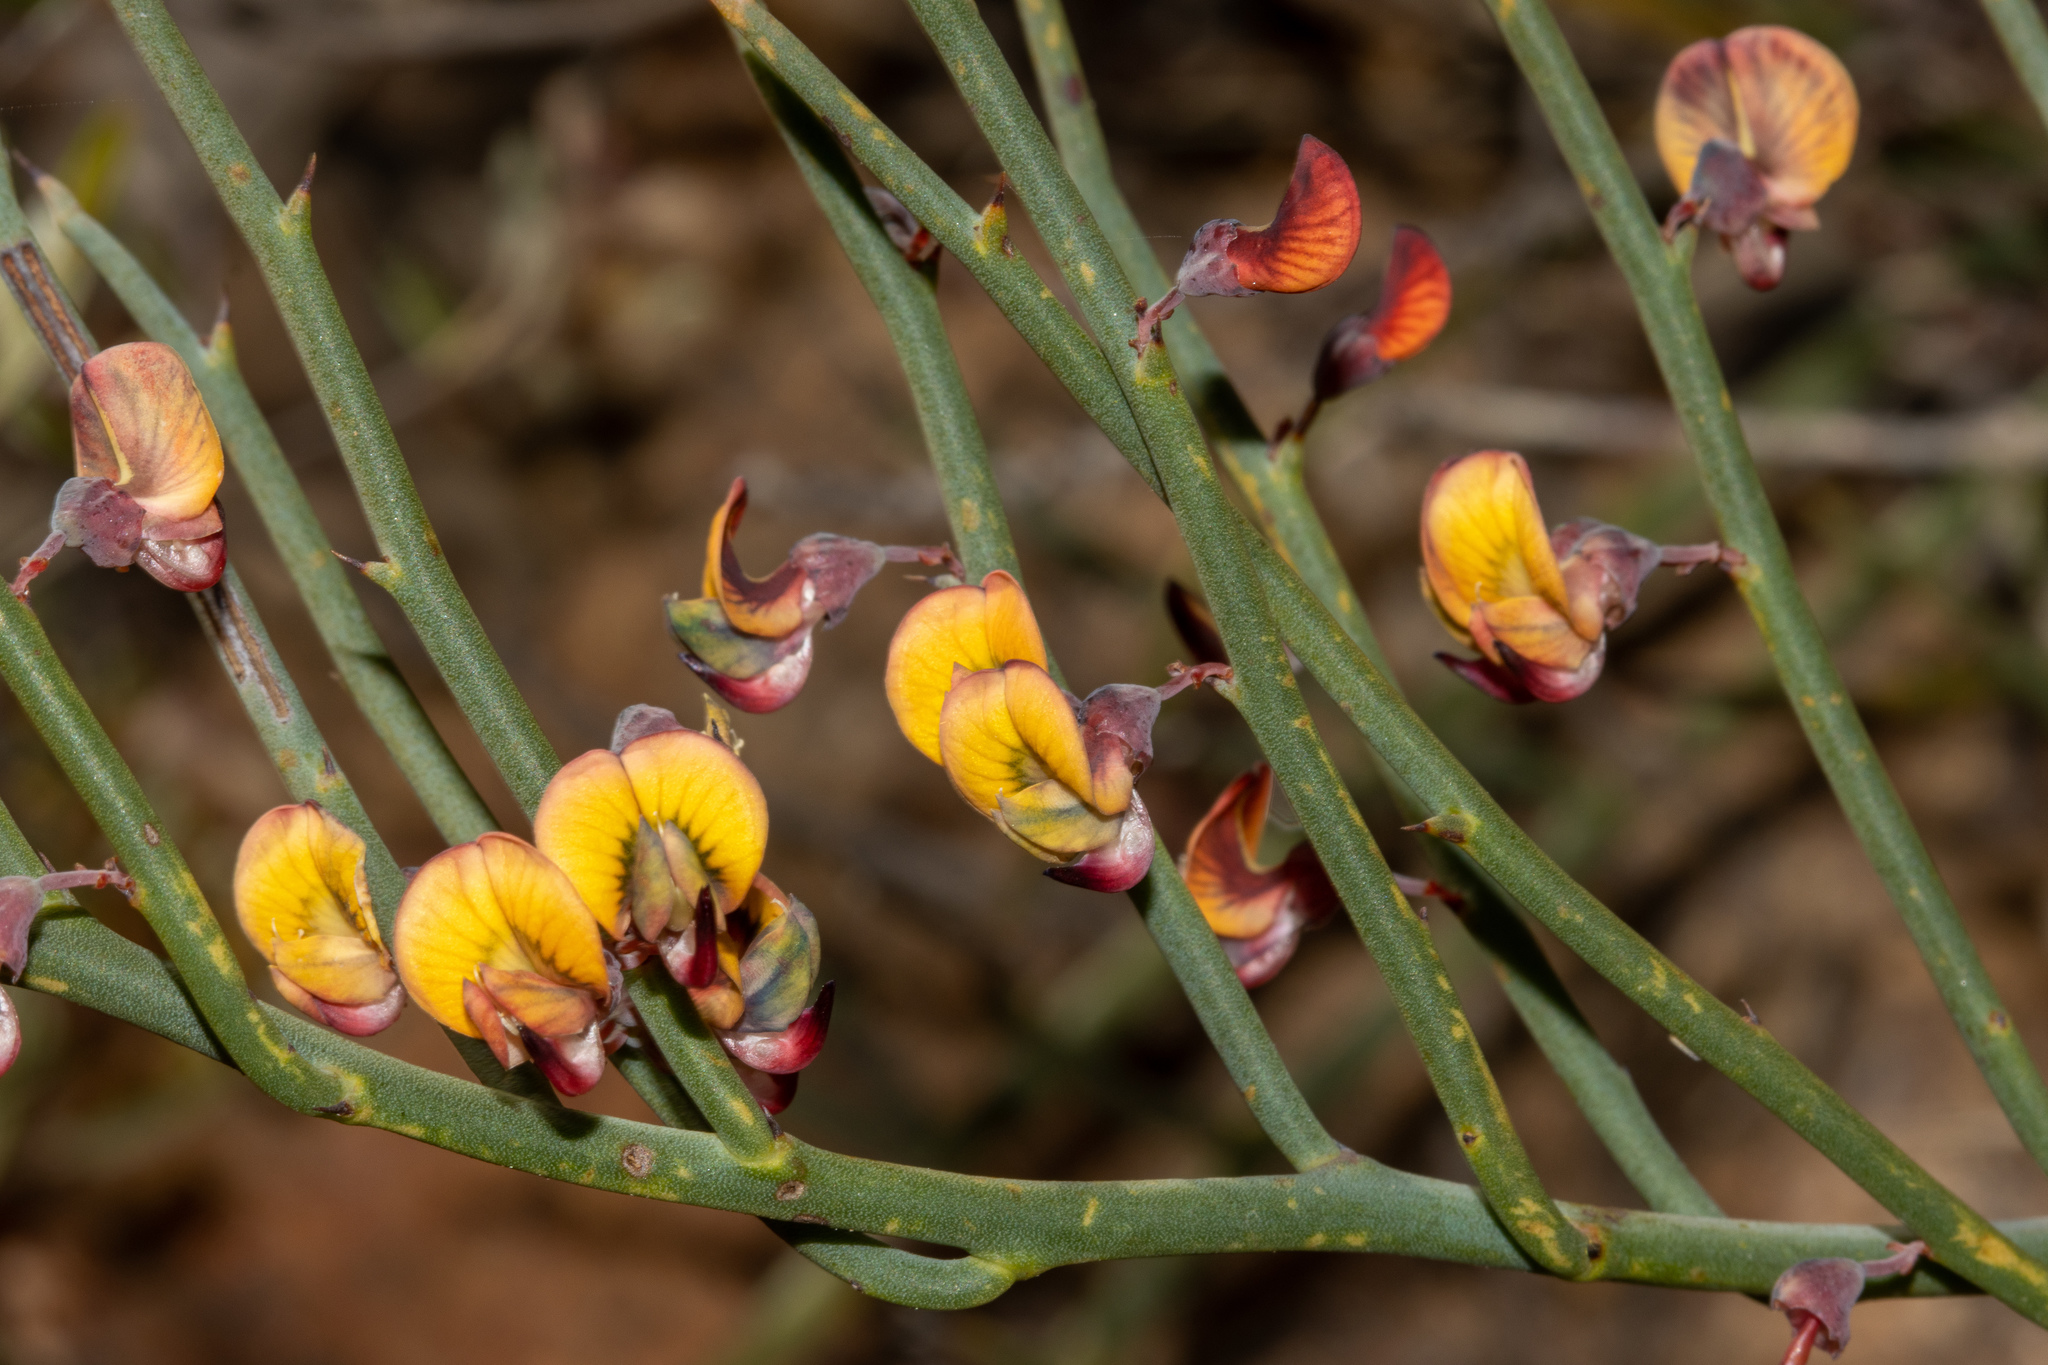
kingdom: Plantae
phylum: Tracheophyta
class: Magnoliopsida
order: Fabales
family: Fabaceae
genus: Daviesia
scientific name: Daviesia brevifolia
